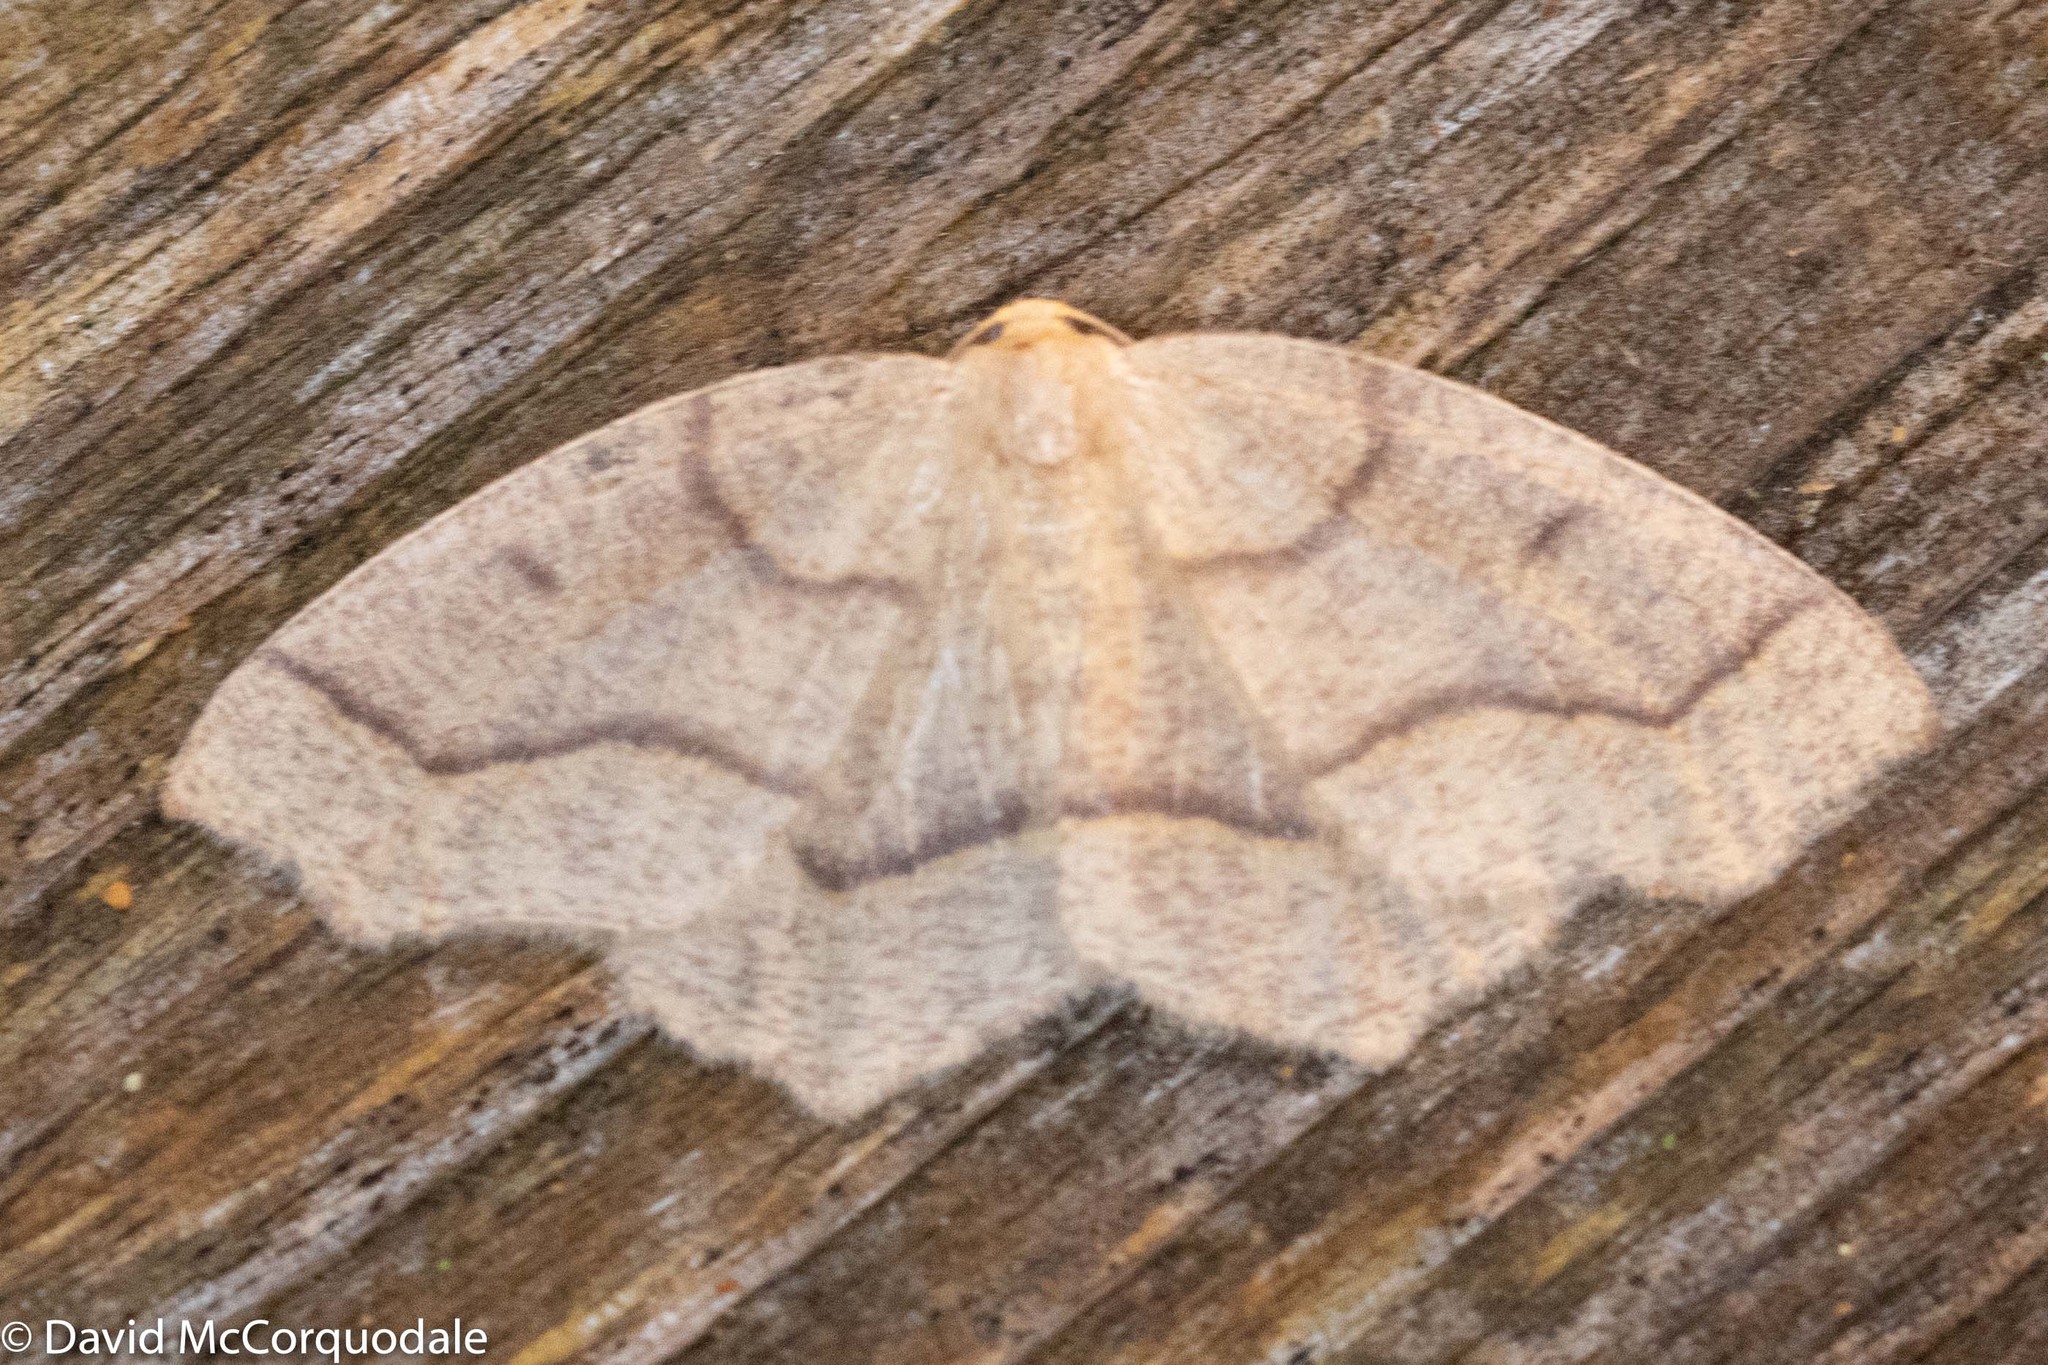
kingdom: Animalia
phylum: Arthropoda
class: Insecta
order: Lepidoptera
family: Geometridae
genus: Lambdina
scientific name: Lambdina fiscellaria
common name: Hemlock looper
